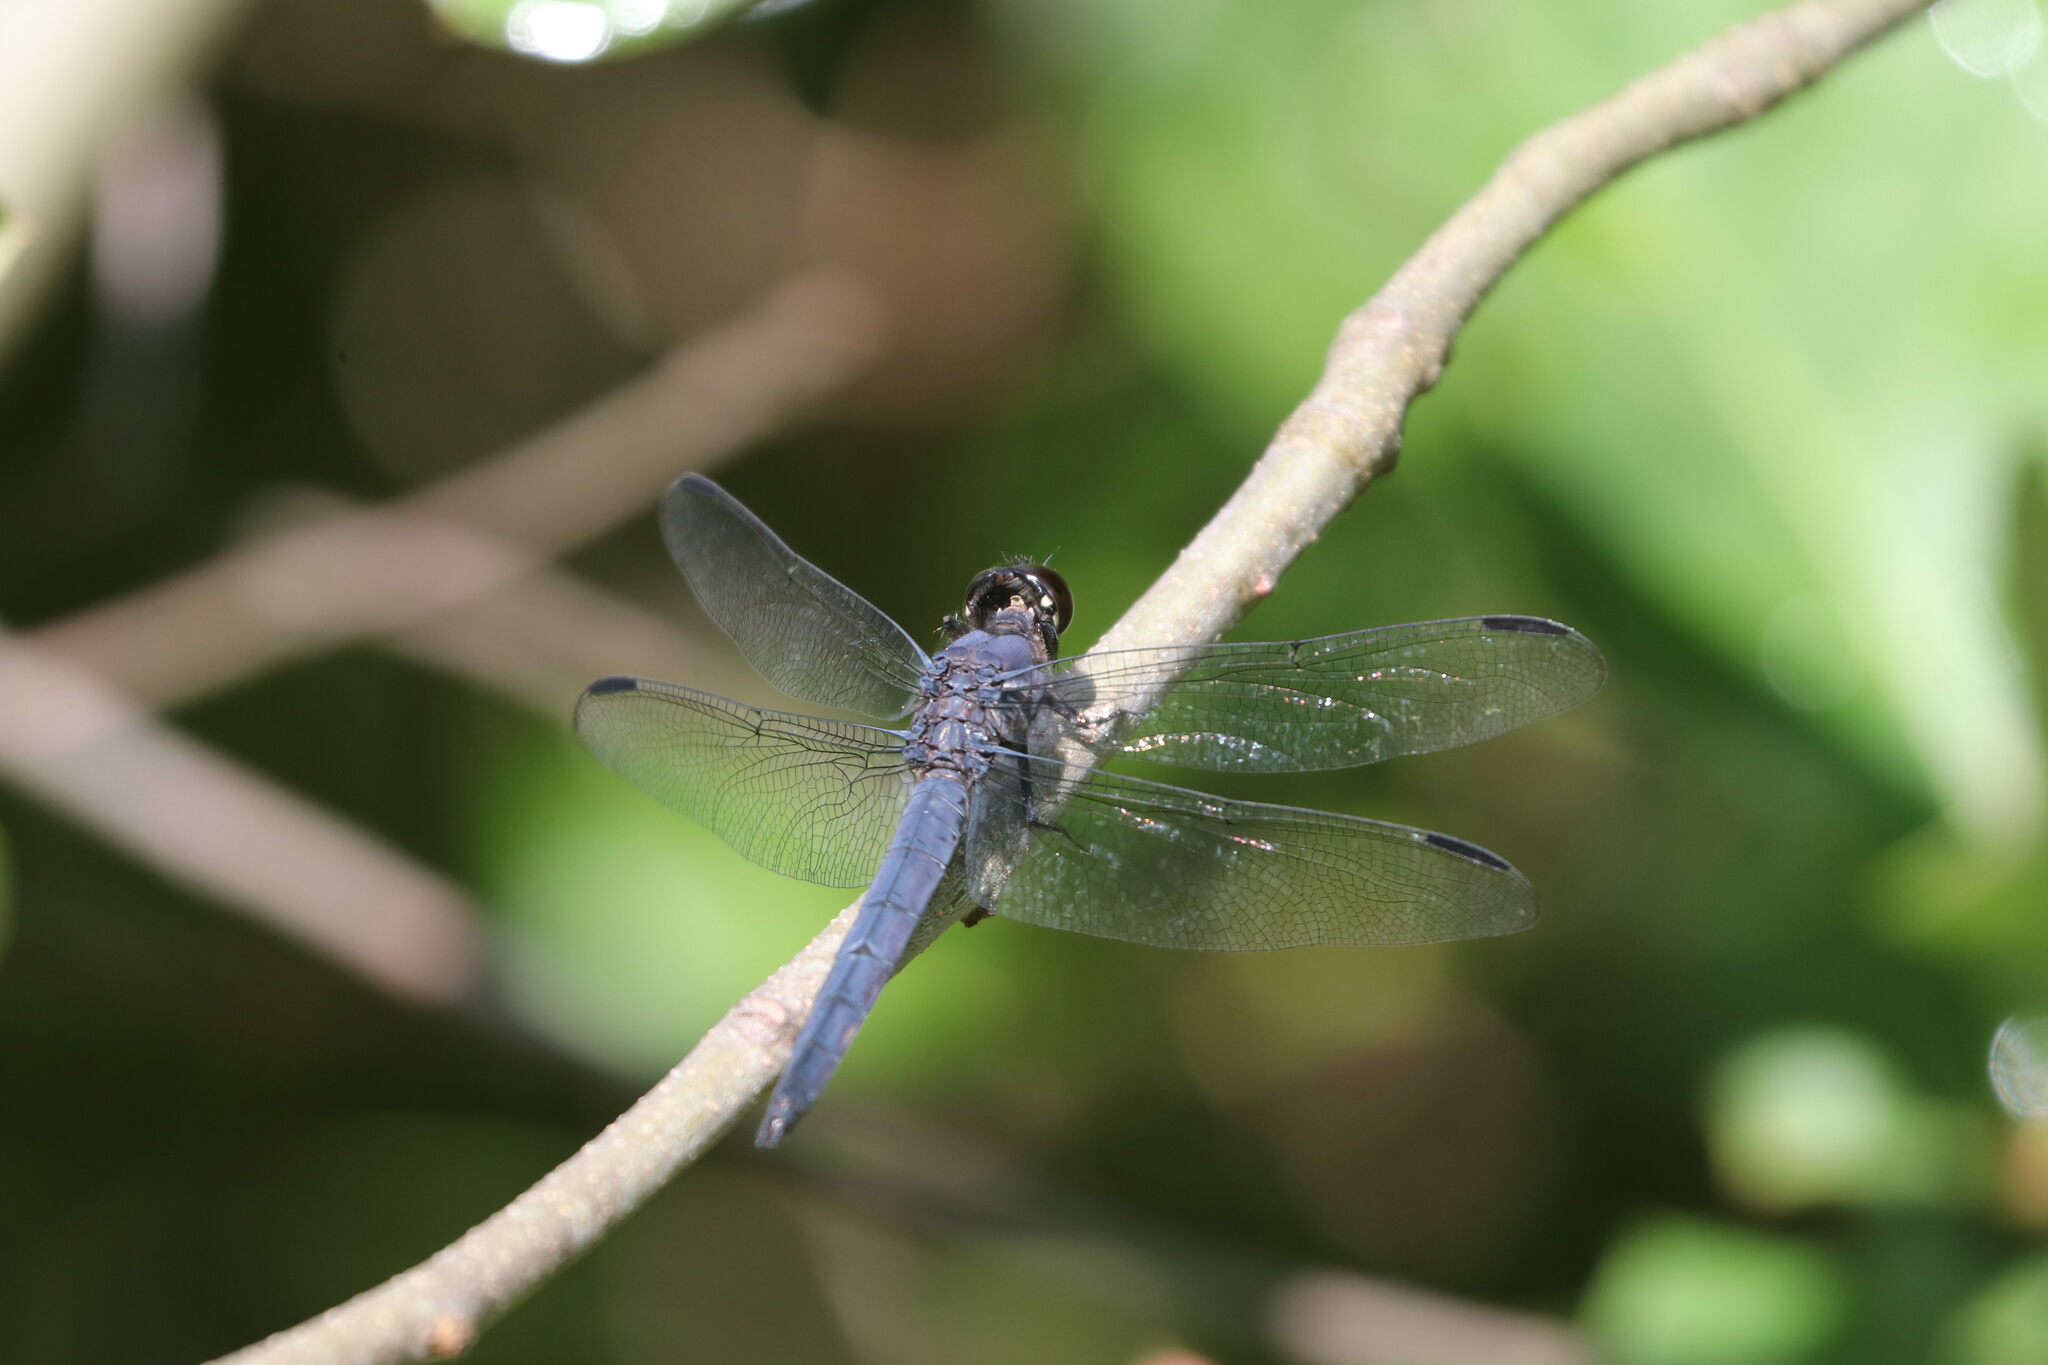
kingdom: Animalia
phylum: Arthropoda
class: Insecta
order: Odonata
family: Libellulidae
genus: Libellula
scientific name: Libellula incesta
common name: Slaty skimmer
